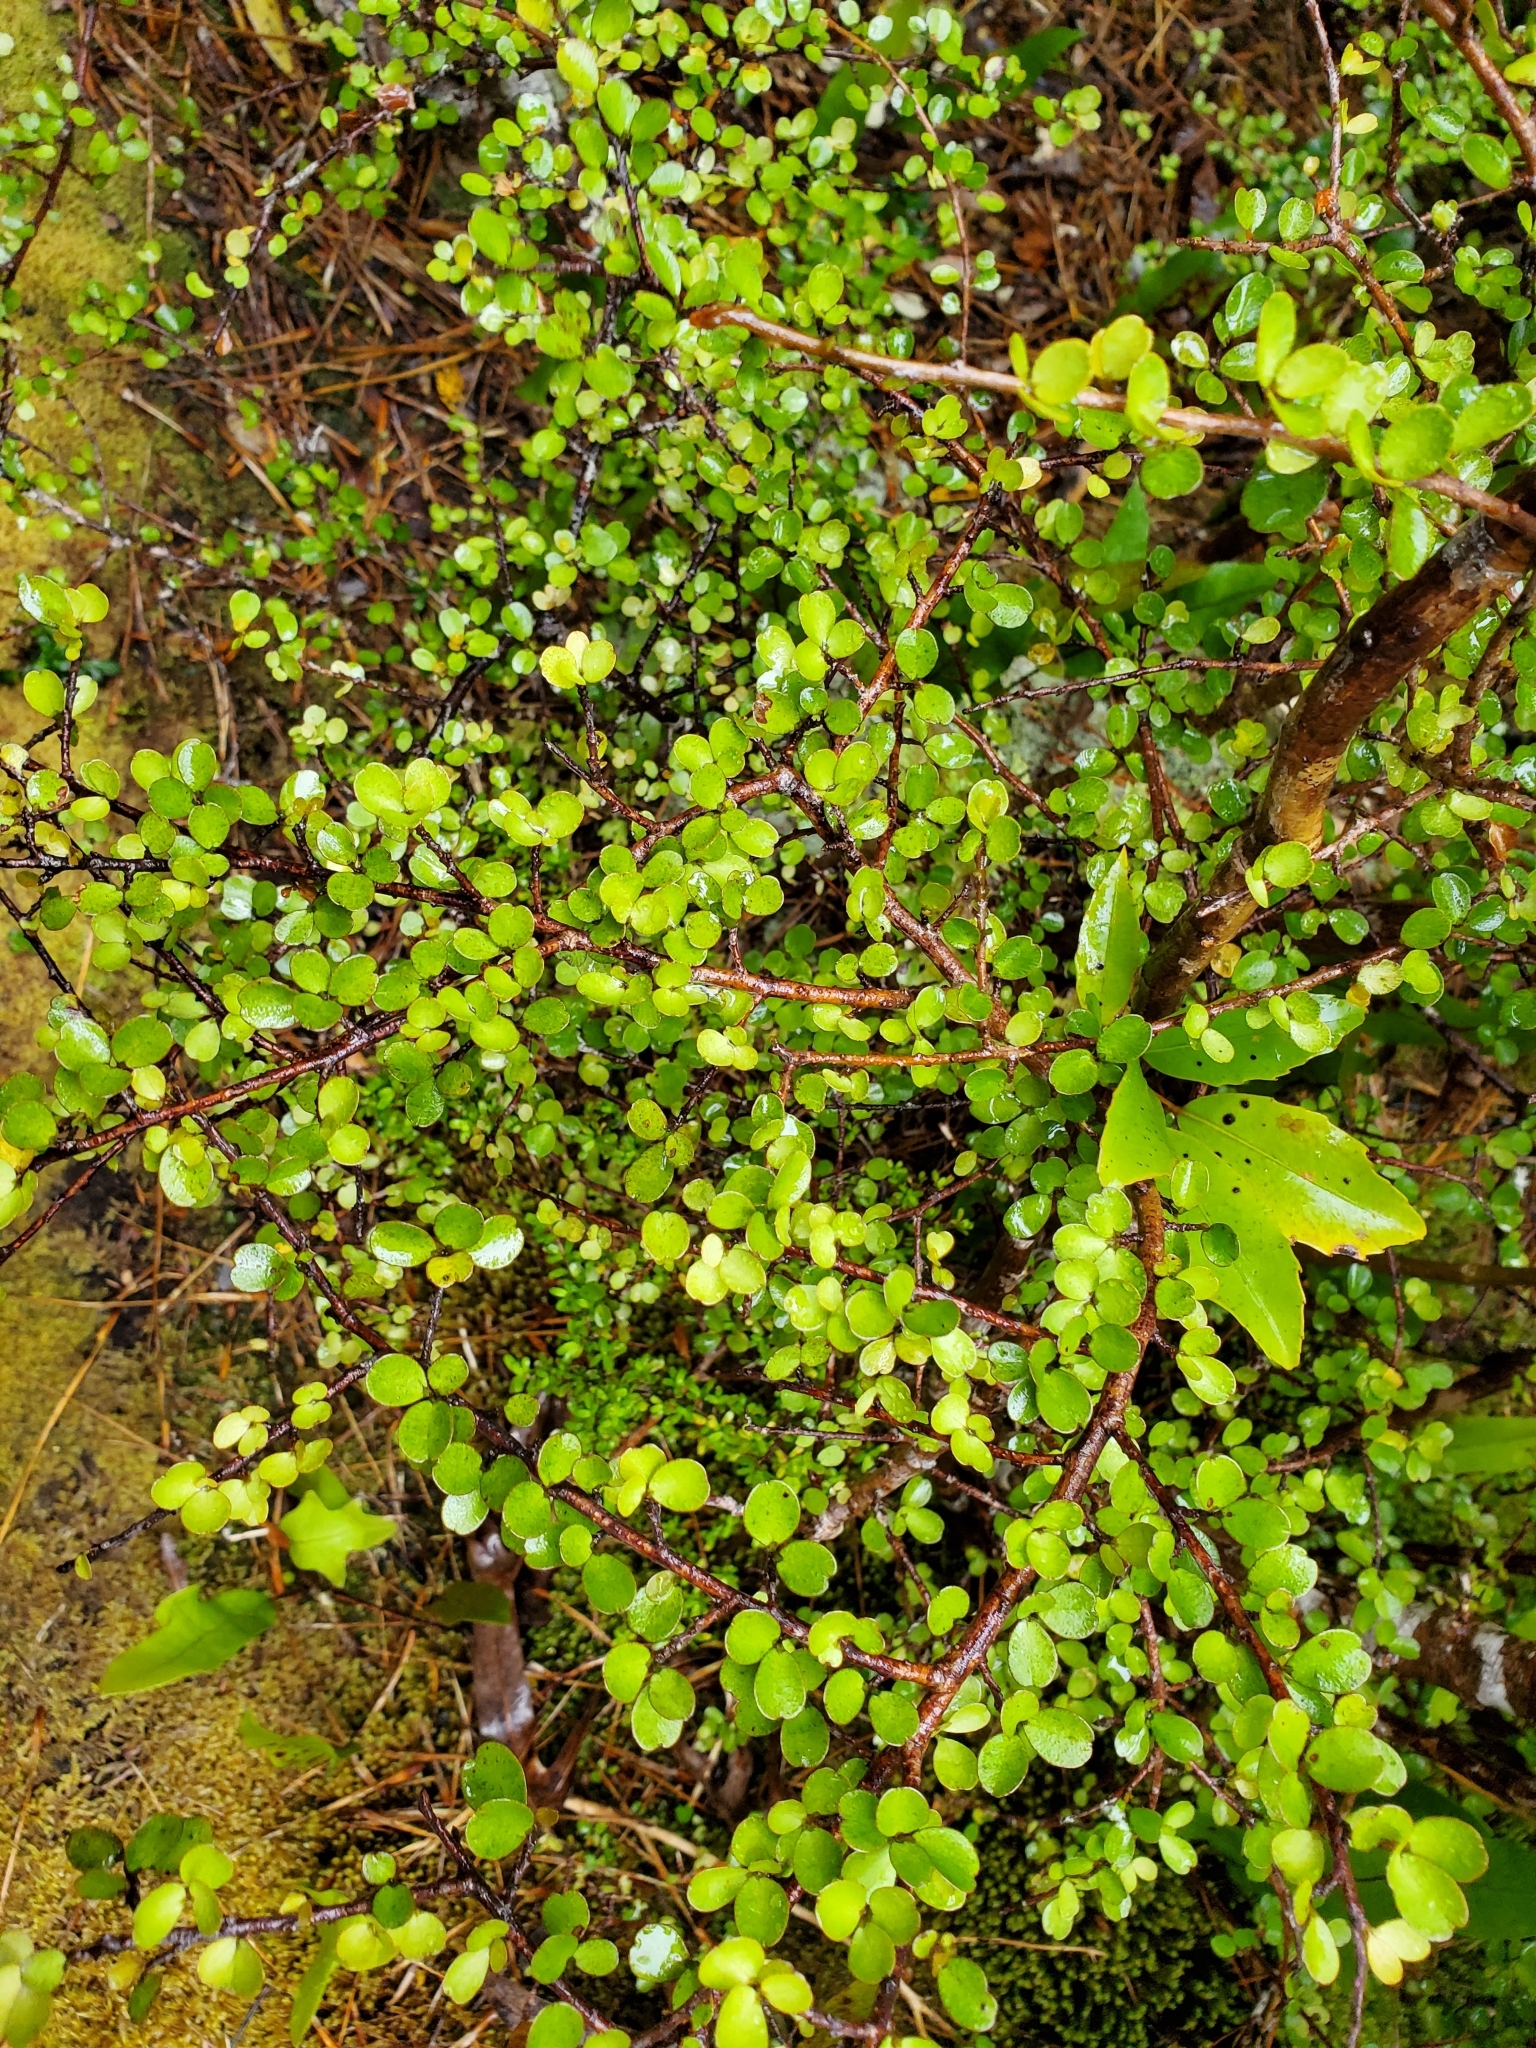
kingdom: Plantae
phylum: Tracheophyta
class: Magnoliopsida
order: Ericales
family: Primulaceae
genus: Myrsine
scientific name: Myrsine divaricata
